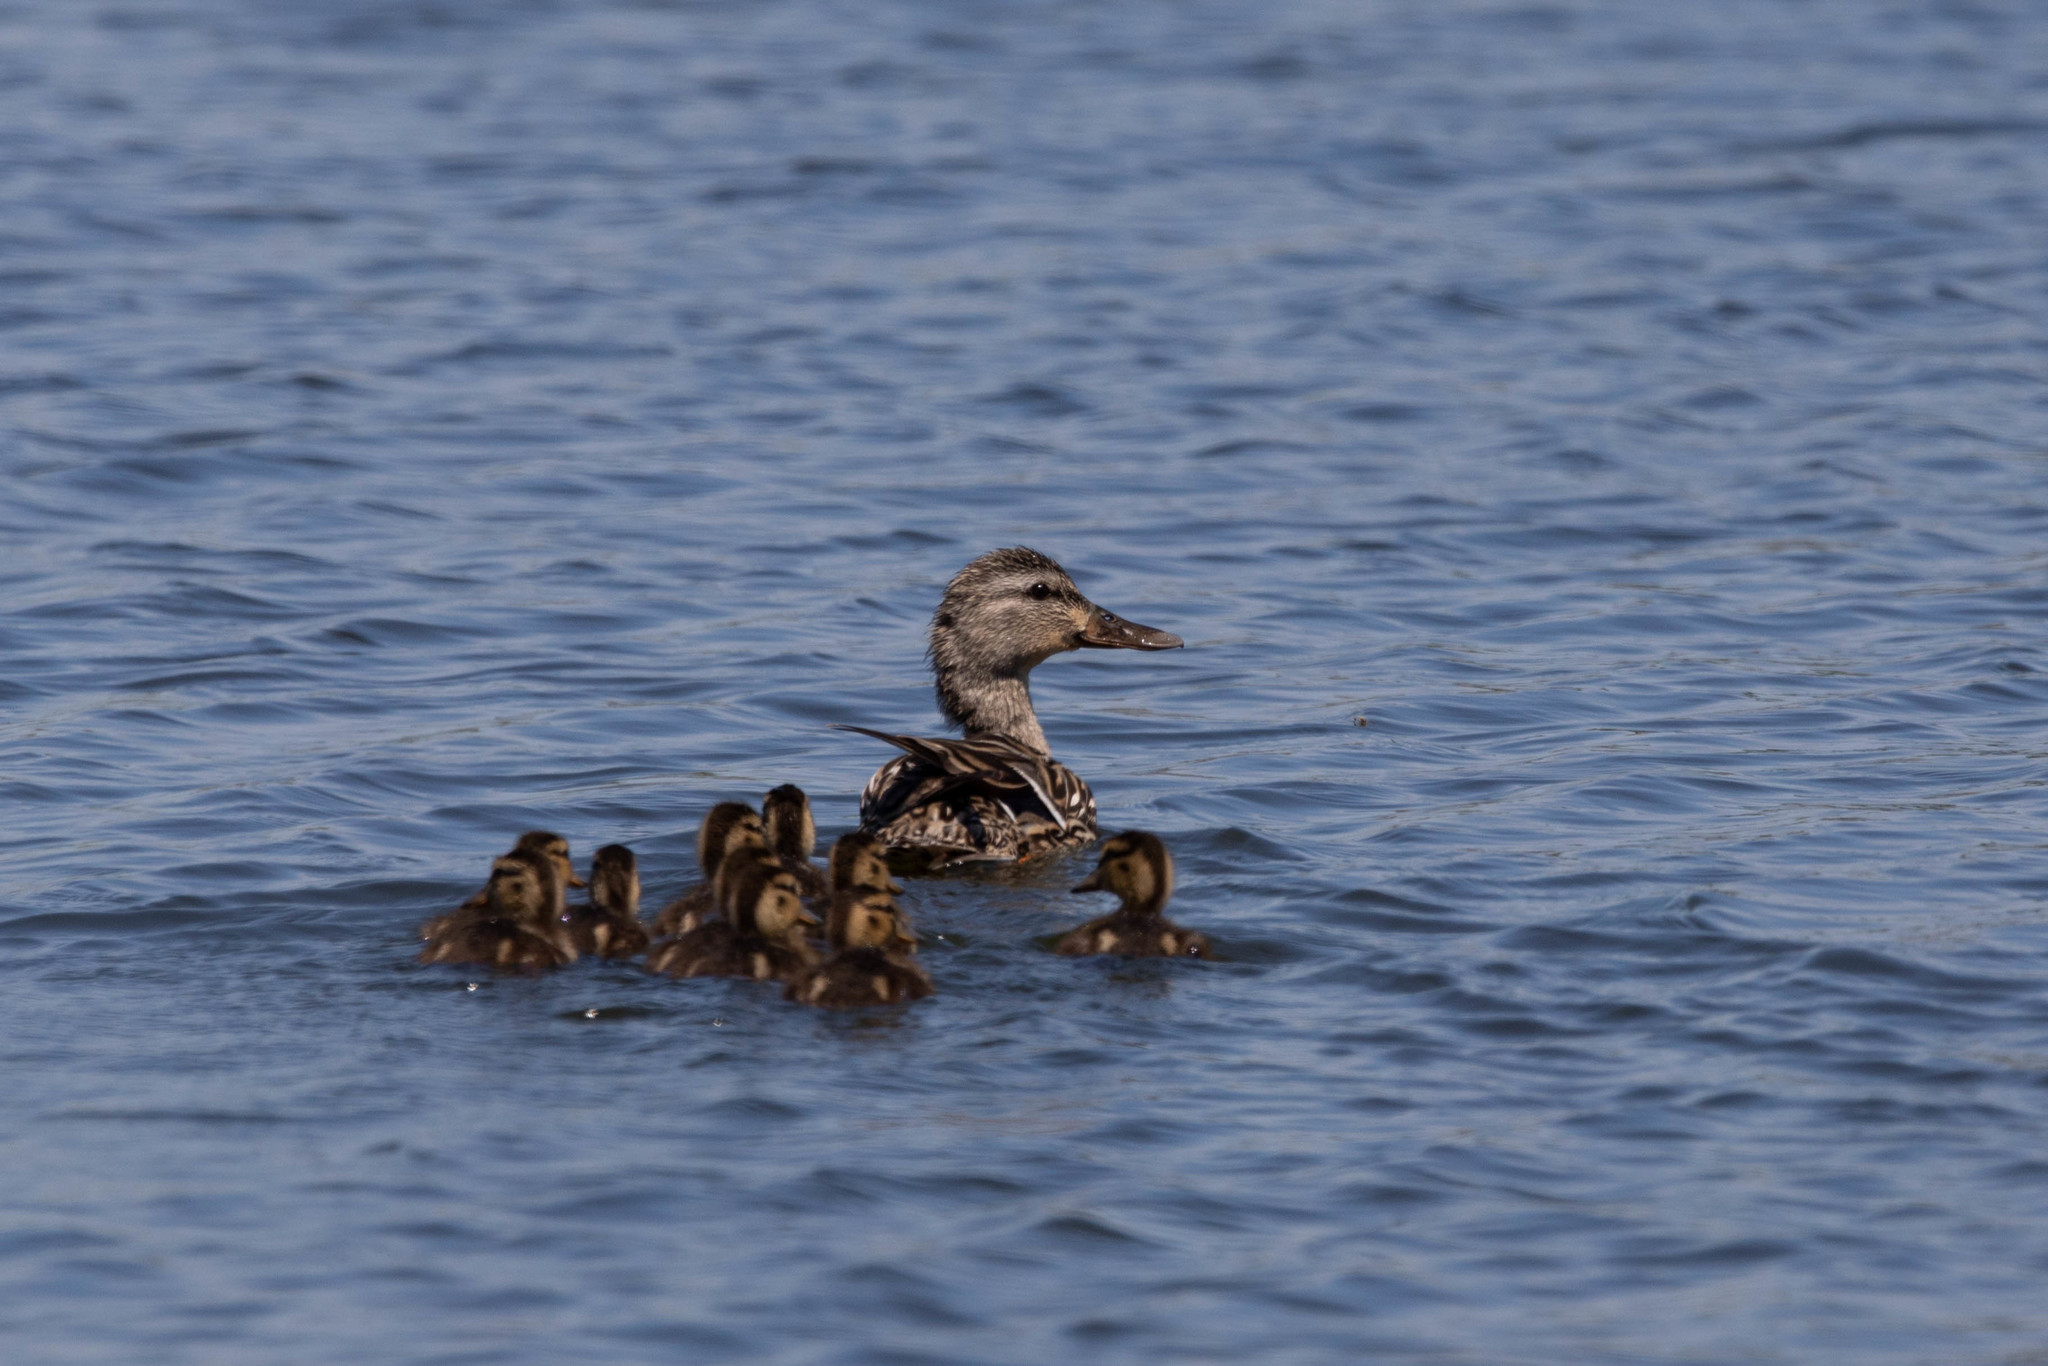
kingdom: Animalia
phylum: Chordata
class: Aves
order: Anseriformes
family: Anatidae
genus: Anas
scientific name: Anas platyrhynchos
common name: Mallard
